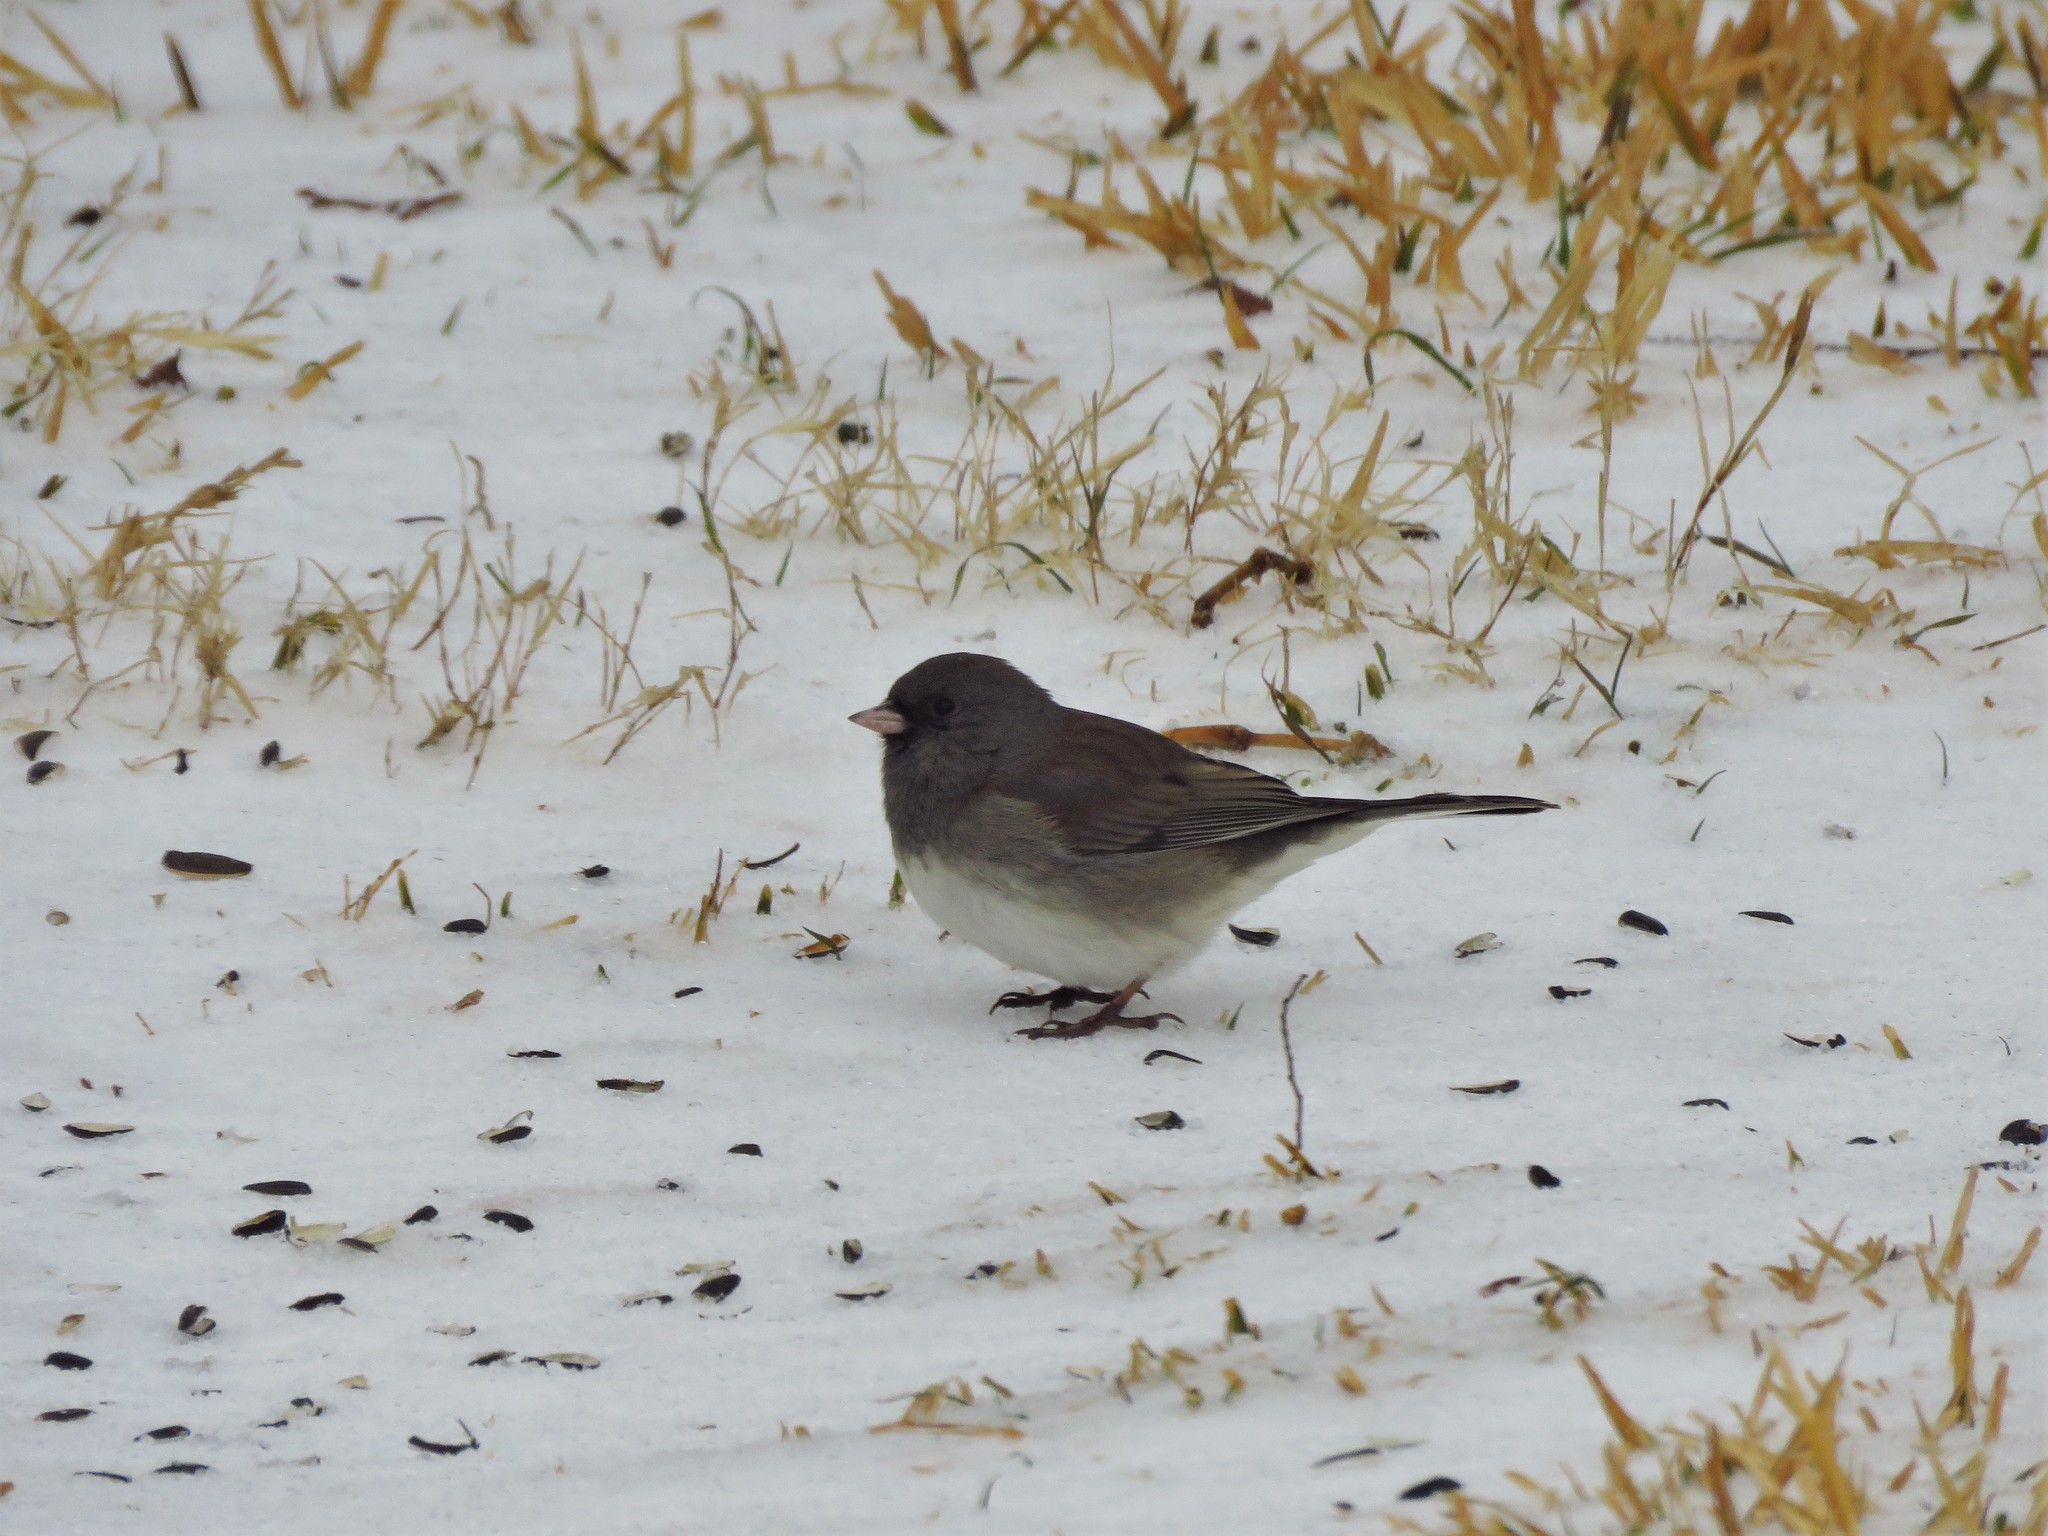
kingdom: Animalia
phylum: Chordata
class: Aves
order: Passeriformes
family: Passerellidae
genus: Junco
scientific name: Junco hyemalis
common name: Dark-eyed junco
